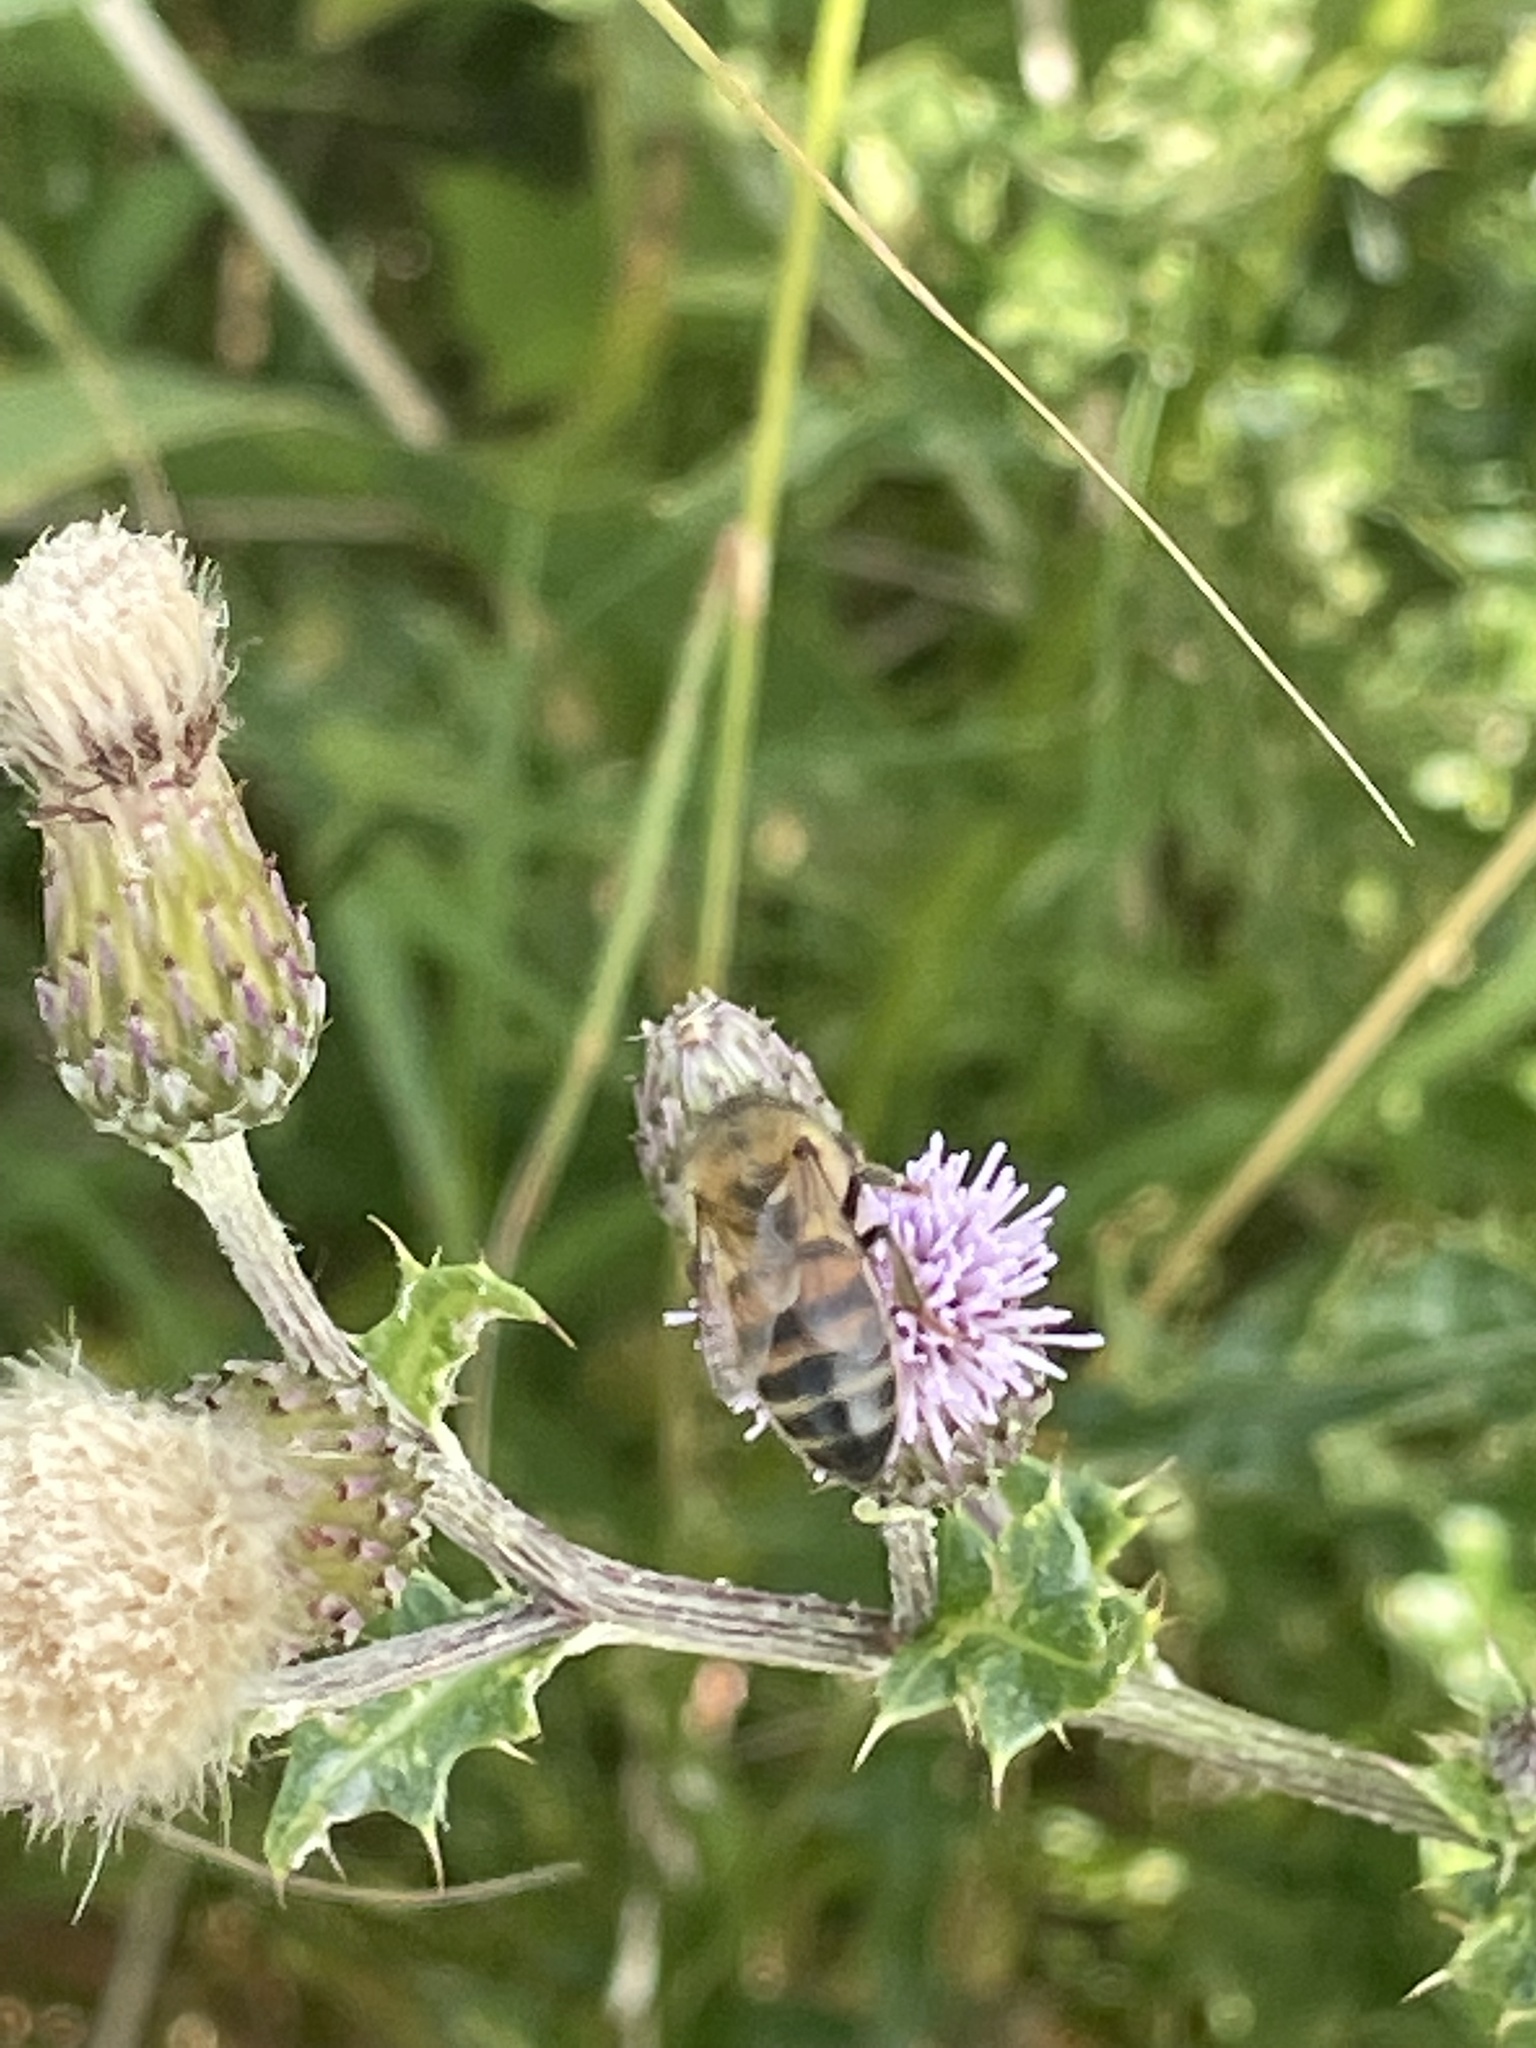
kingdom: Animalia
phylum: Arthropoda
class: Insecta
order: Hymenoptera
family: Apidae
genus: Apis
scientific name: Apis mellifera
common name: Honey bee
